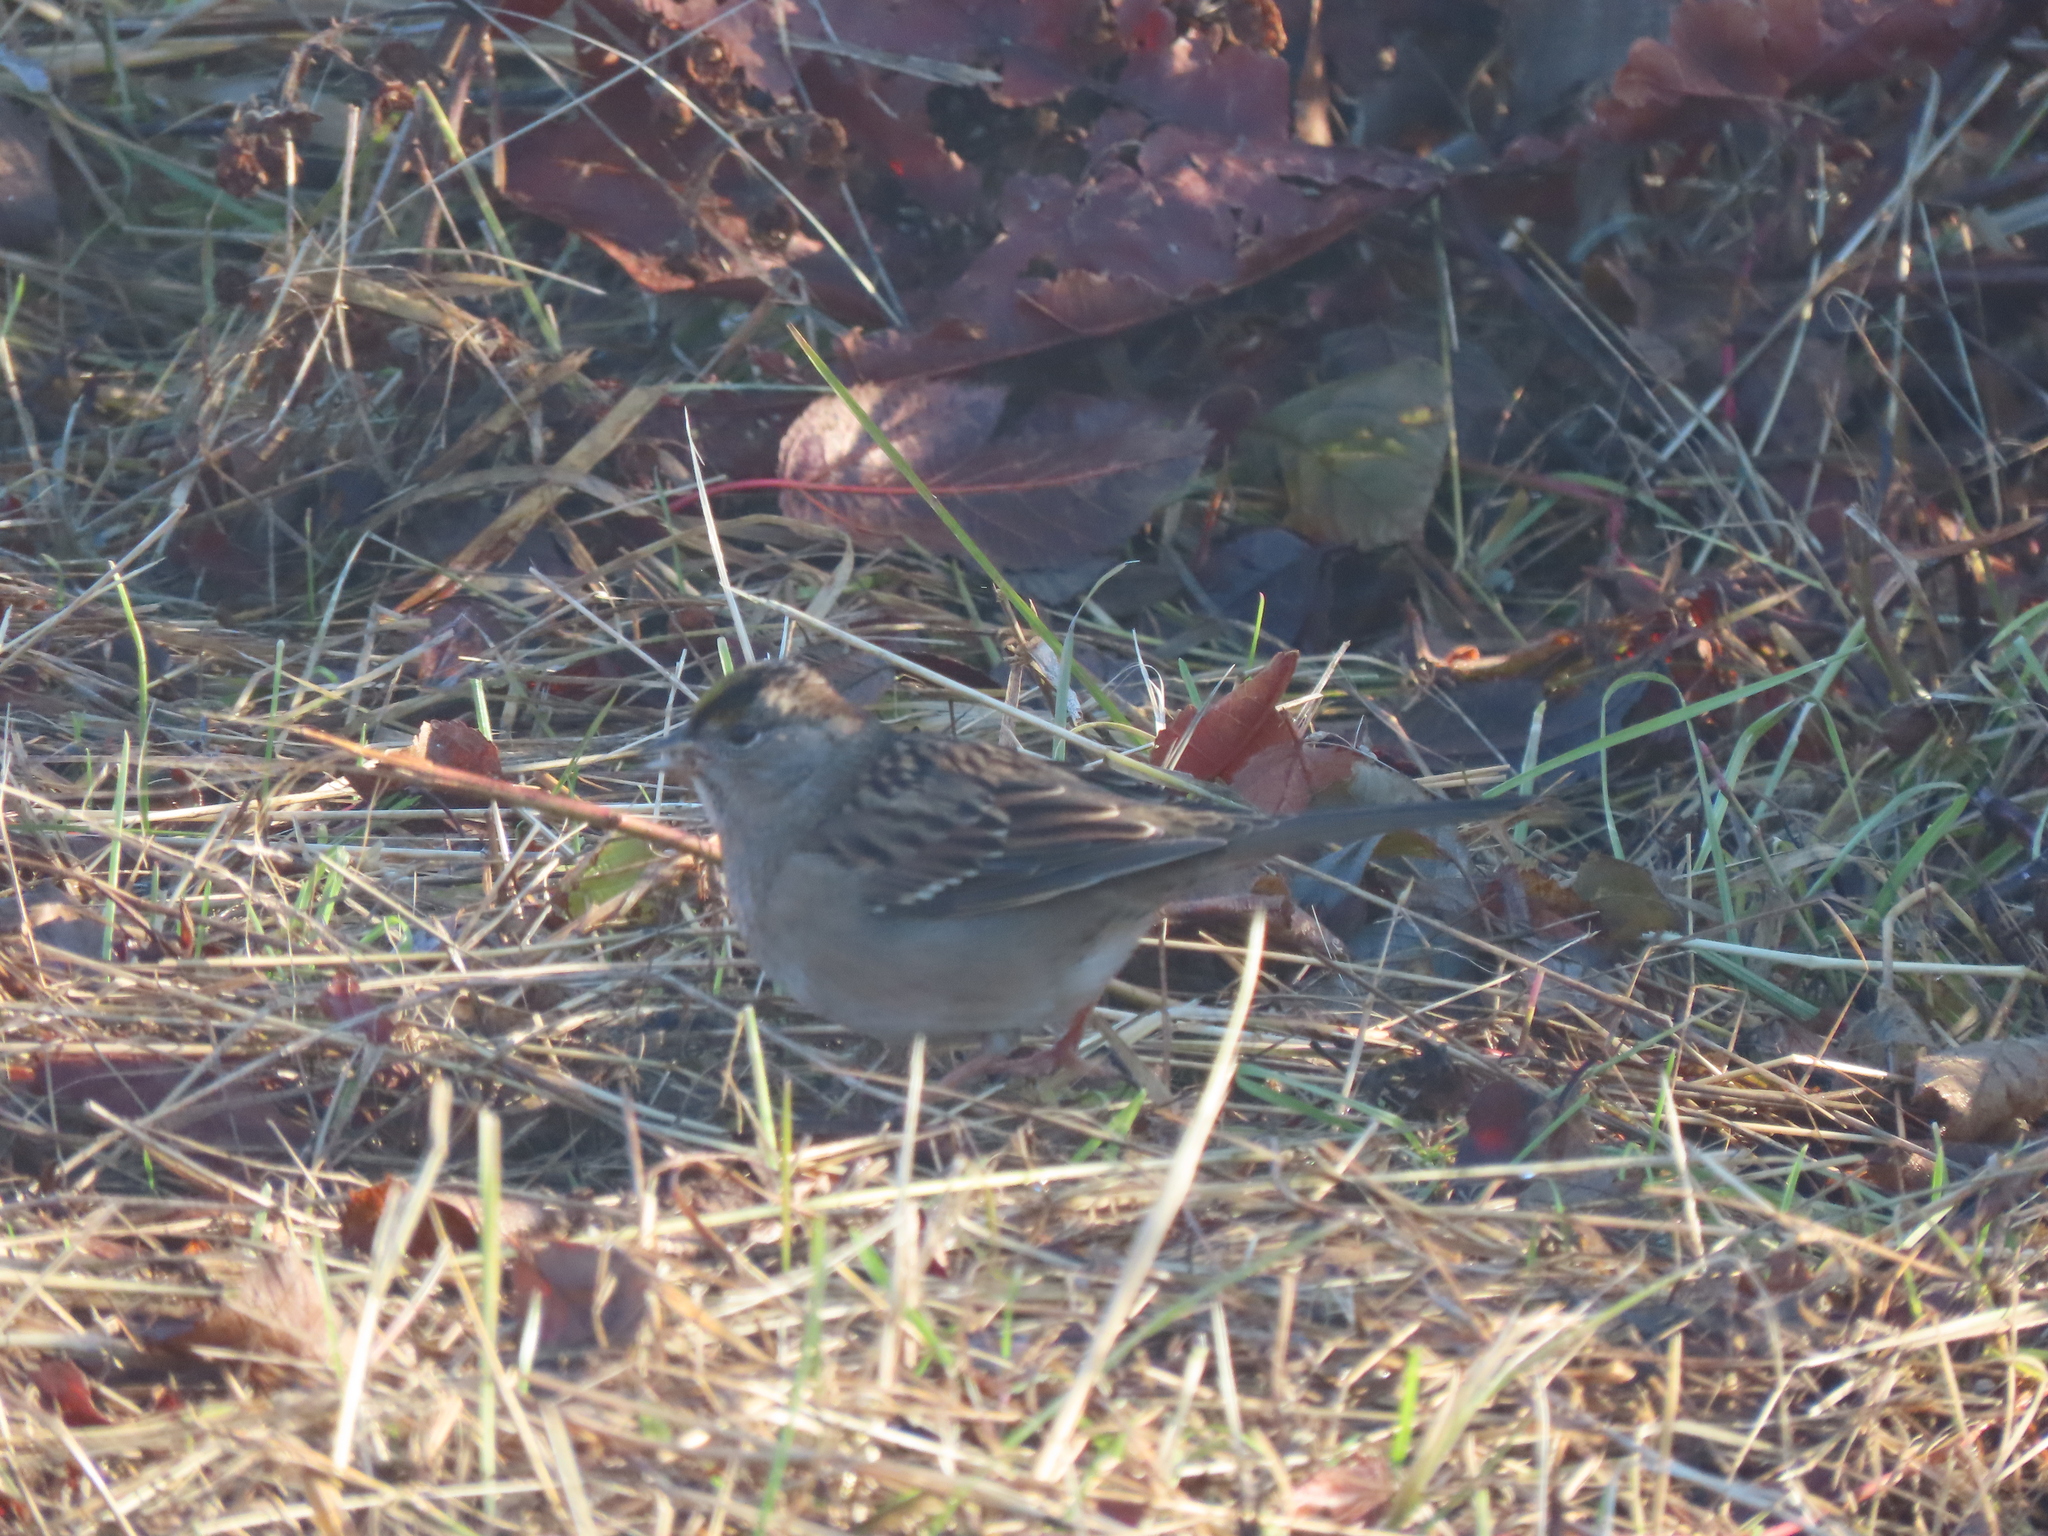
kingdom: Animalia
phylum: Chordata
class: Aves
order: Passeriformes
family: Passerellidae
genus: Zonotrichia
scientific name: Zonotrichia atricapilla
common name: Golden-crowned sparrow
